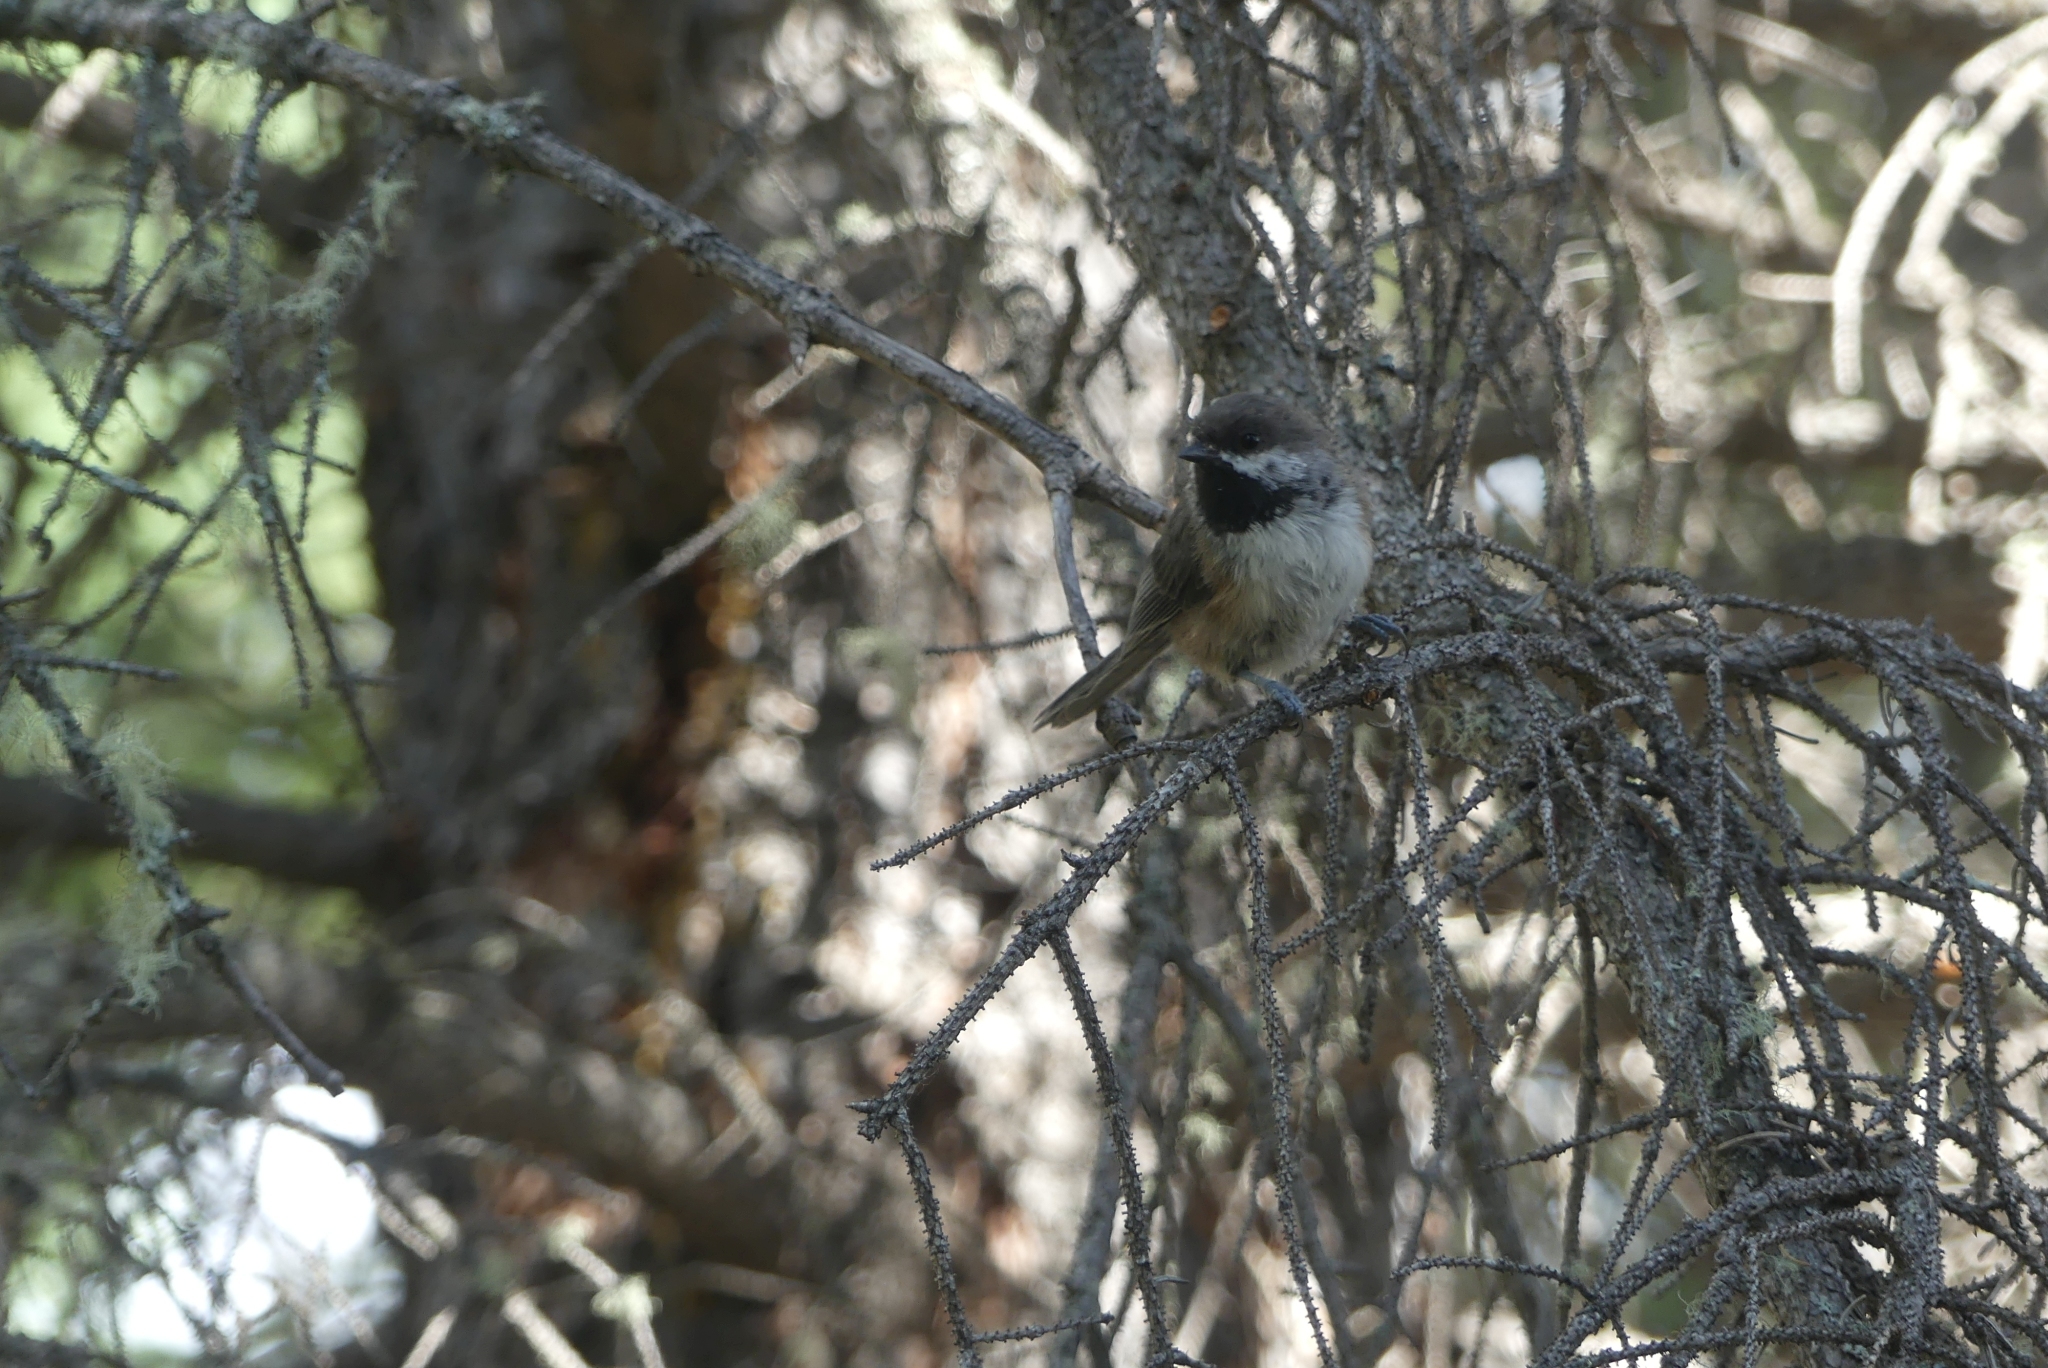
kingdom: Animalia
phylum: Chordata
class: Aves
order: Passeriformes
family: Paridae
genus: Poecile
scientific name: Poecile hudsonicus
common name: Boreal chickadee
